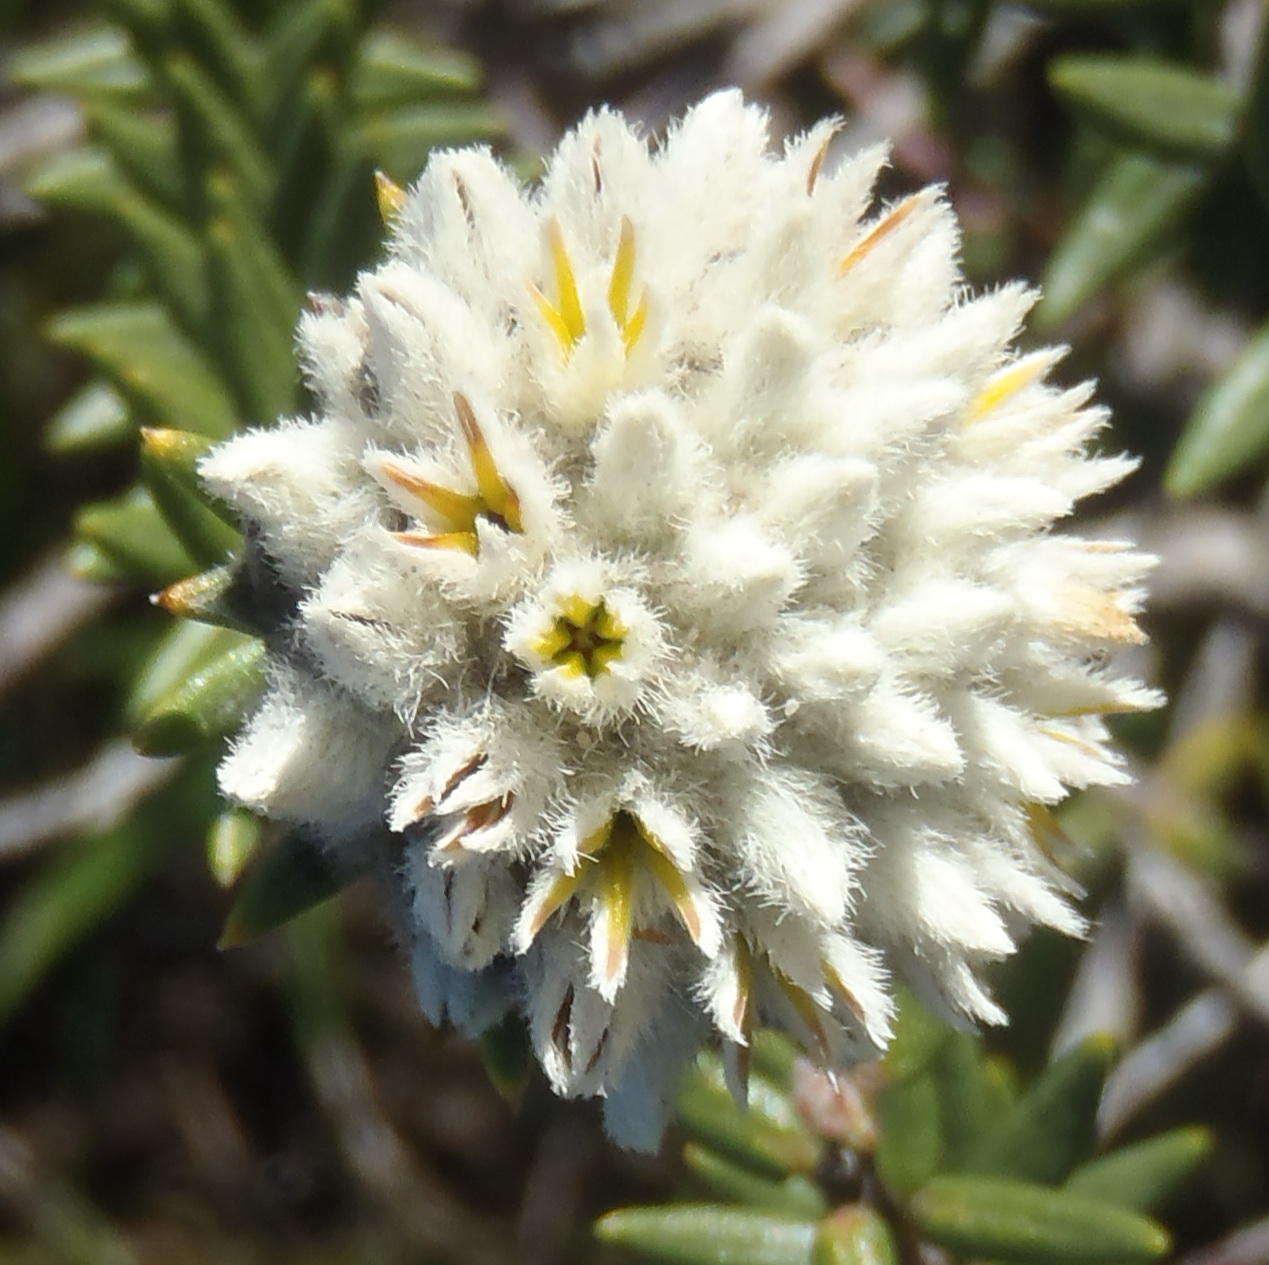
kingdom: Plantae
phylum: Tracheophyta
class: Magnoliopsida
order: Rosales
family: Rhamnaceae
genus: Phylica
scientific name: Phylica propinqua
